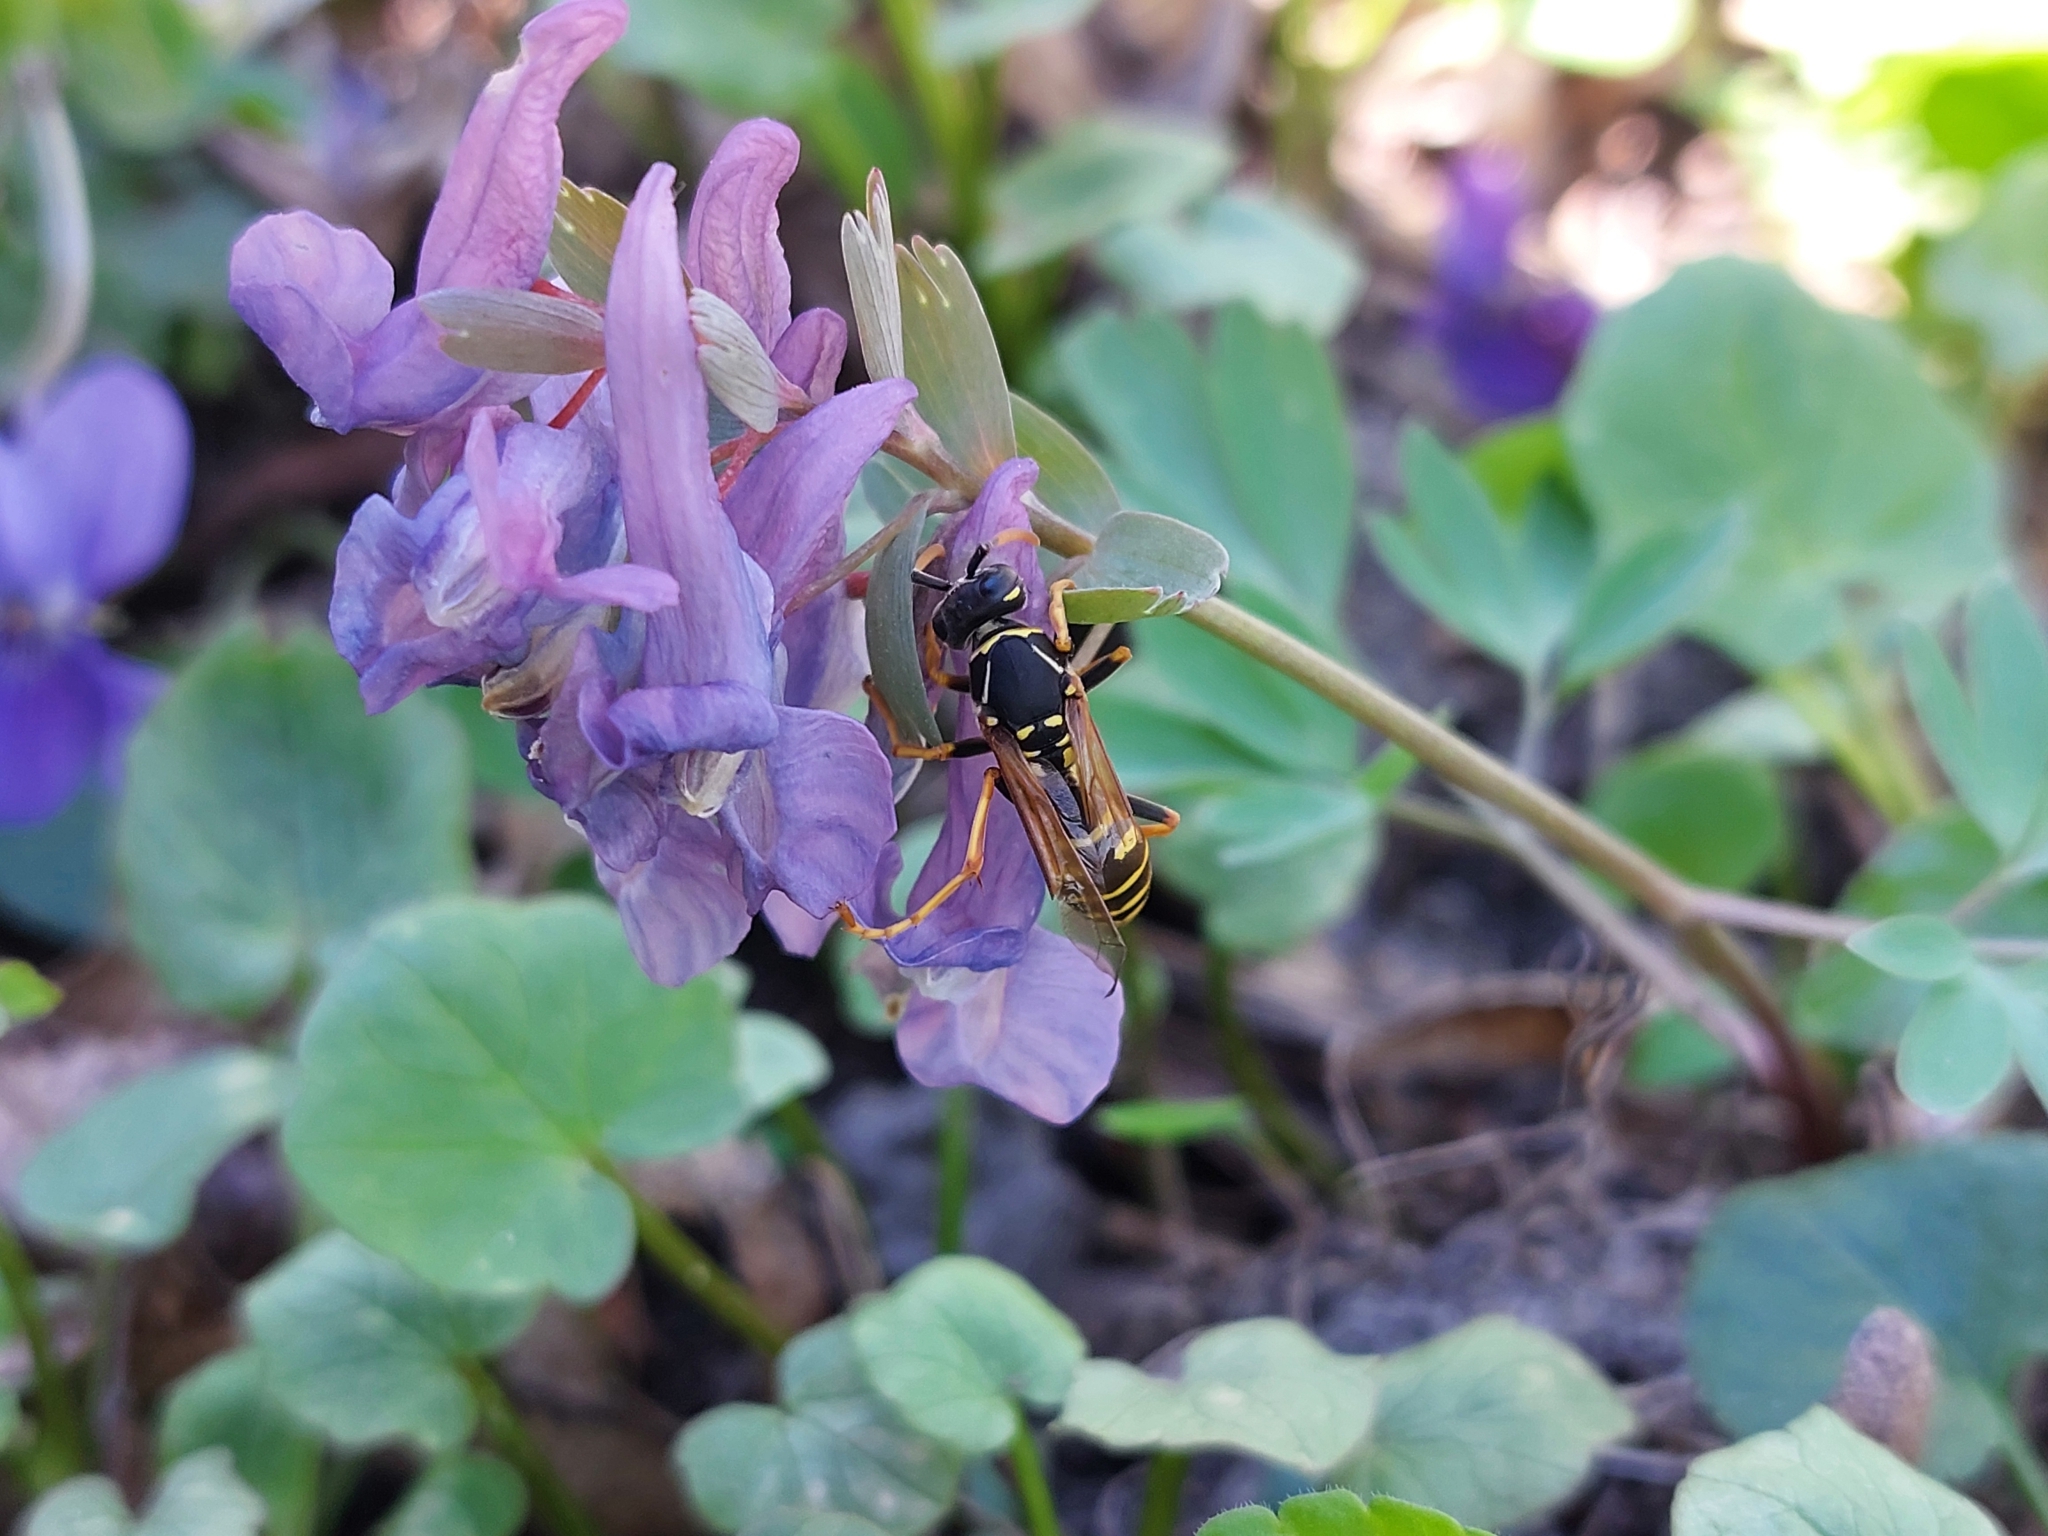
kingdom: Animalia
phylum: Arthropoda
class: Insecta
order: Hymenoptera
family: Eumenidae
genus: Polistes
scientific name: Polistes nimpha
